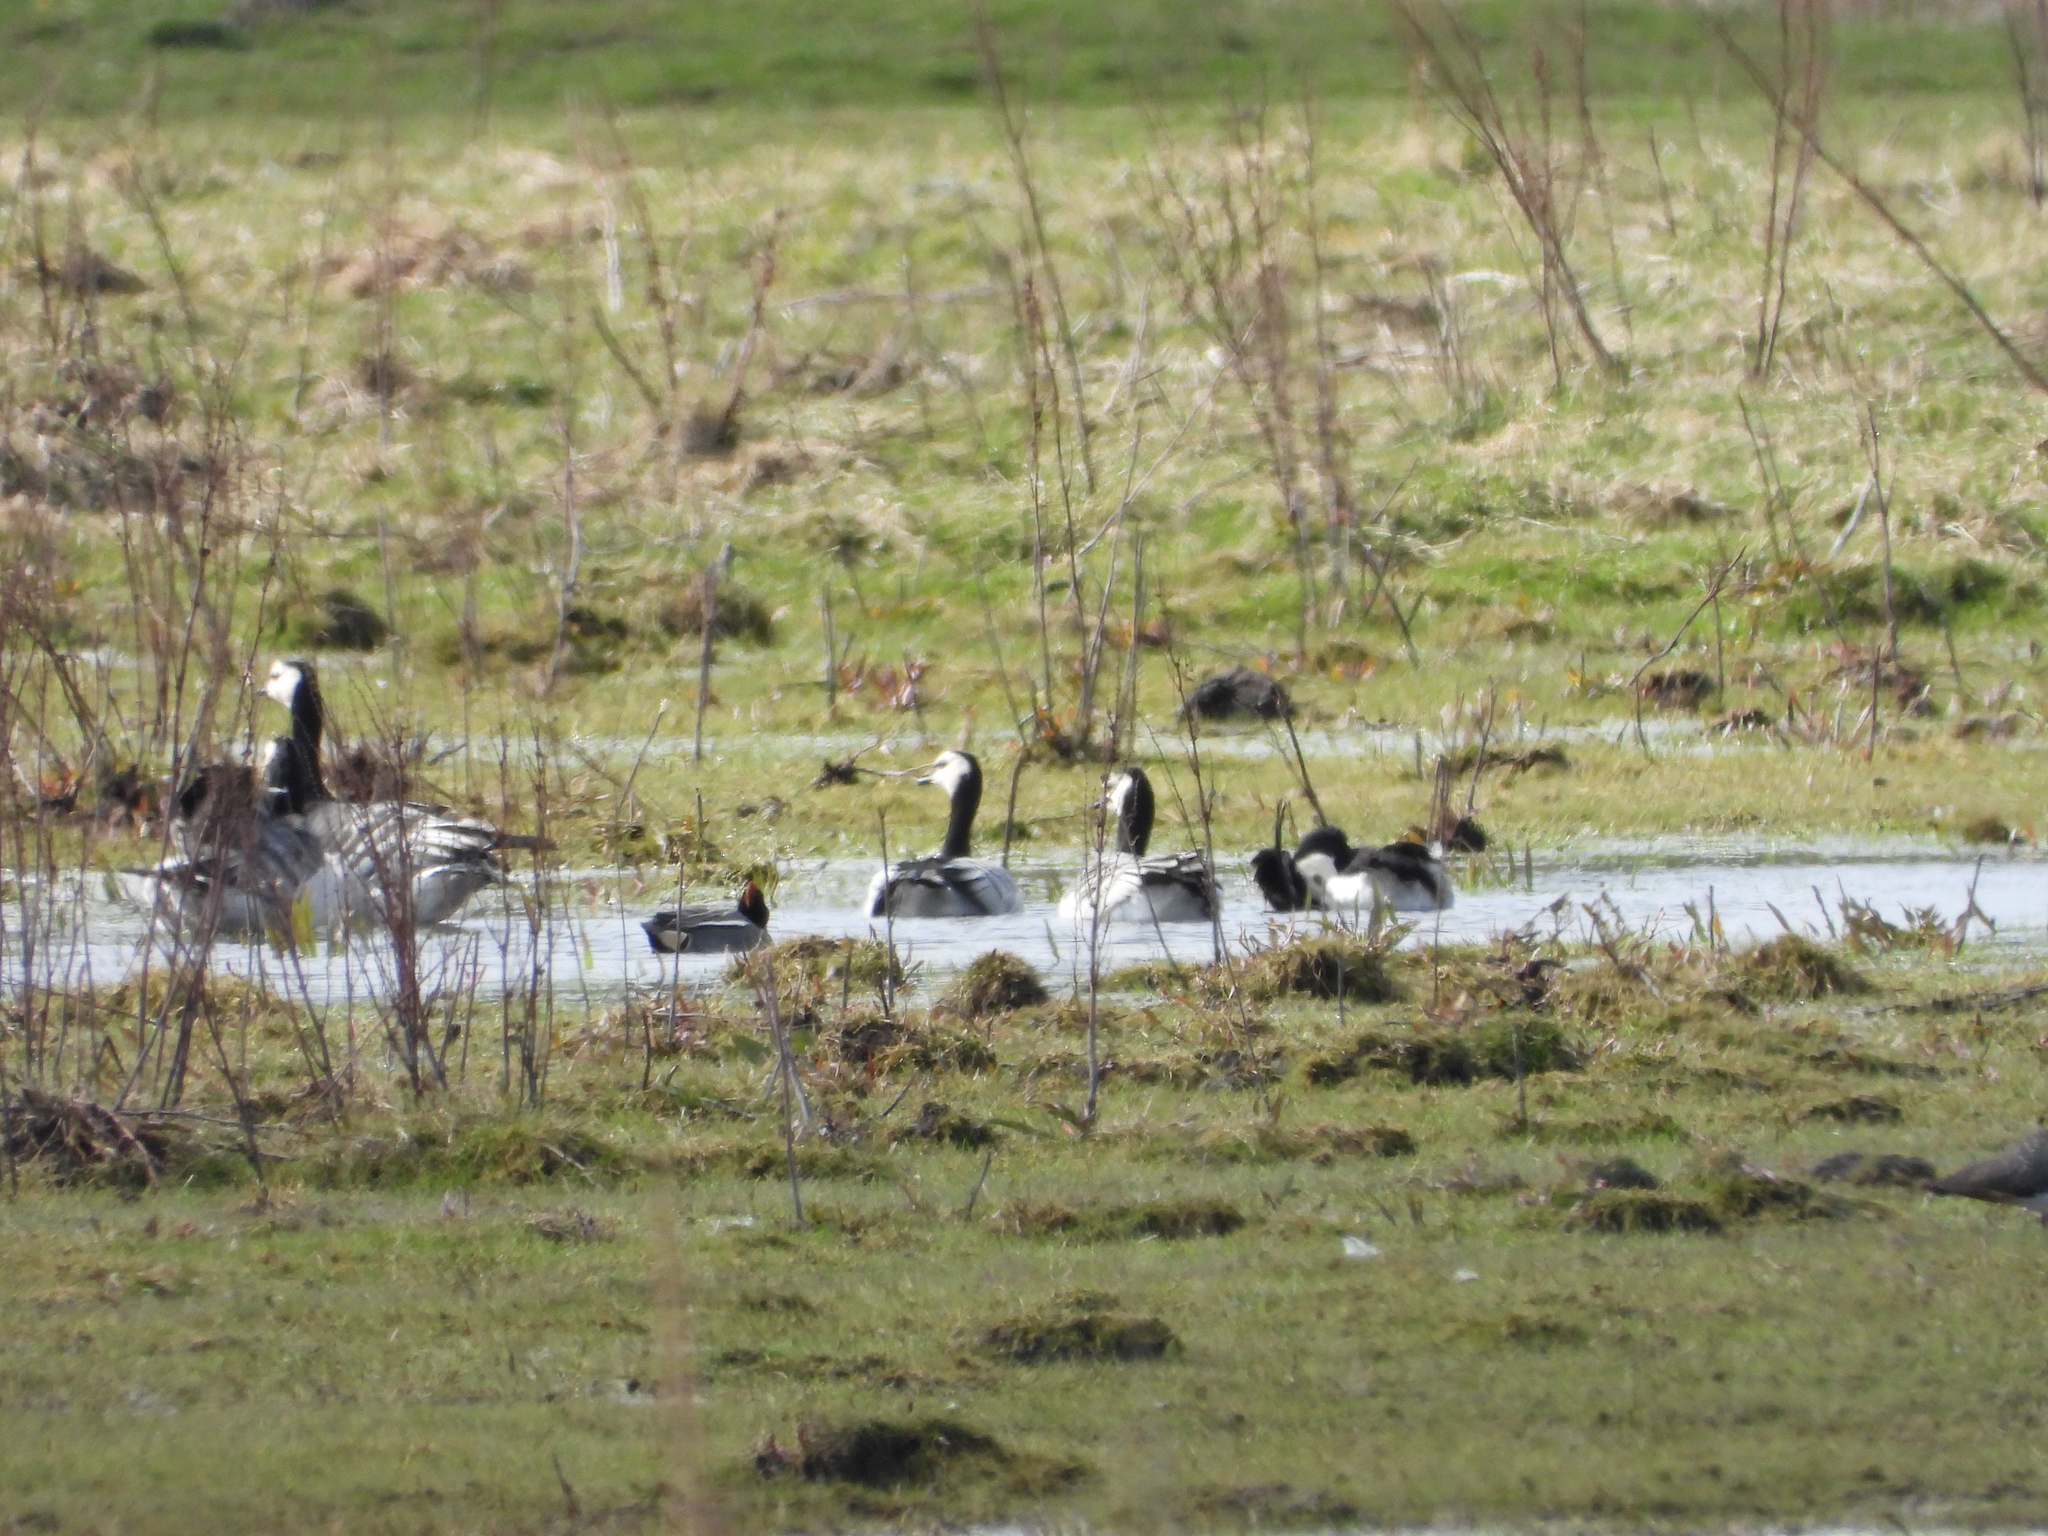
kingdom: Animalia
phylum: Chordata
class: Aves
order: Anseriformes
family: Anatidae
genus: Branta
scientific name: Branta leucopsis
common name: Barnacle goose
